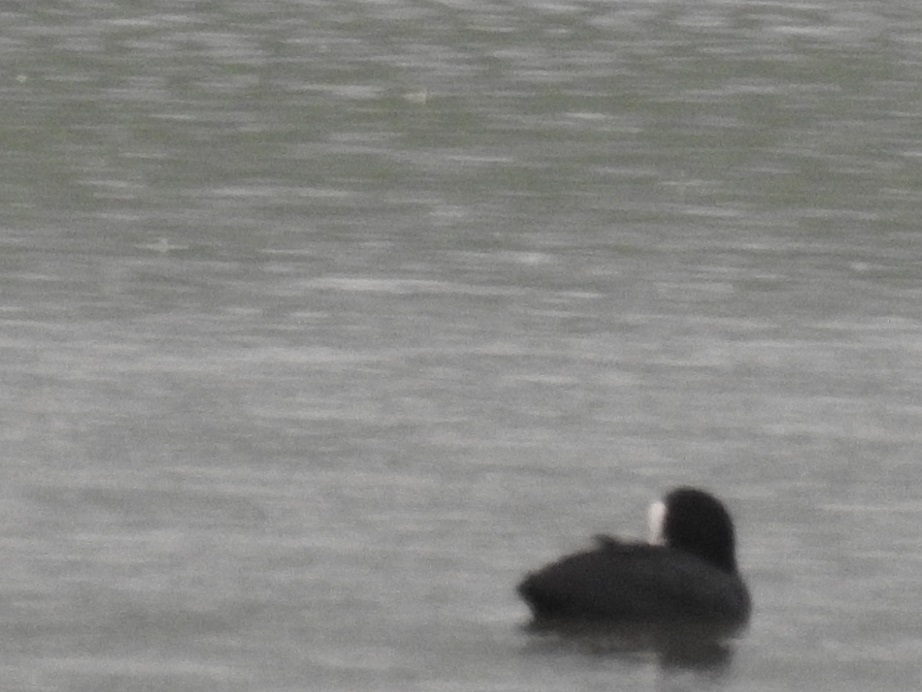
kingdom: Animalia
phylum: Chordata
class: Aves
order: Gruiformes
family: Rallidae
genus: Fulica
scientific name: Fulica atra
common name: Eurasian coot
